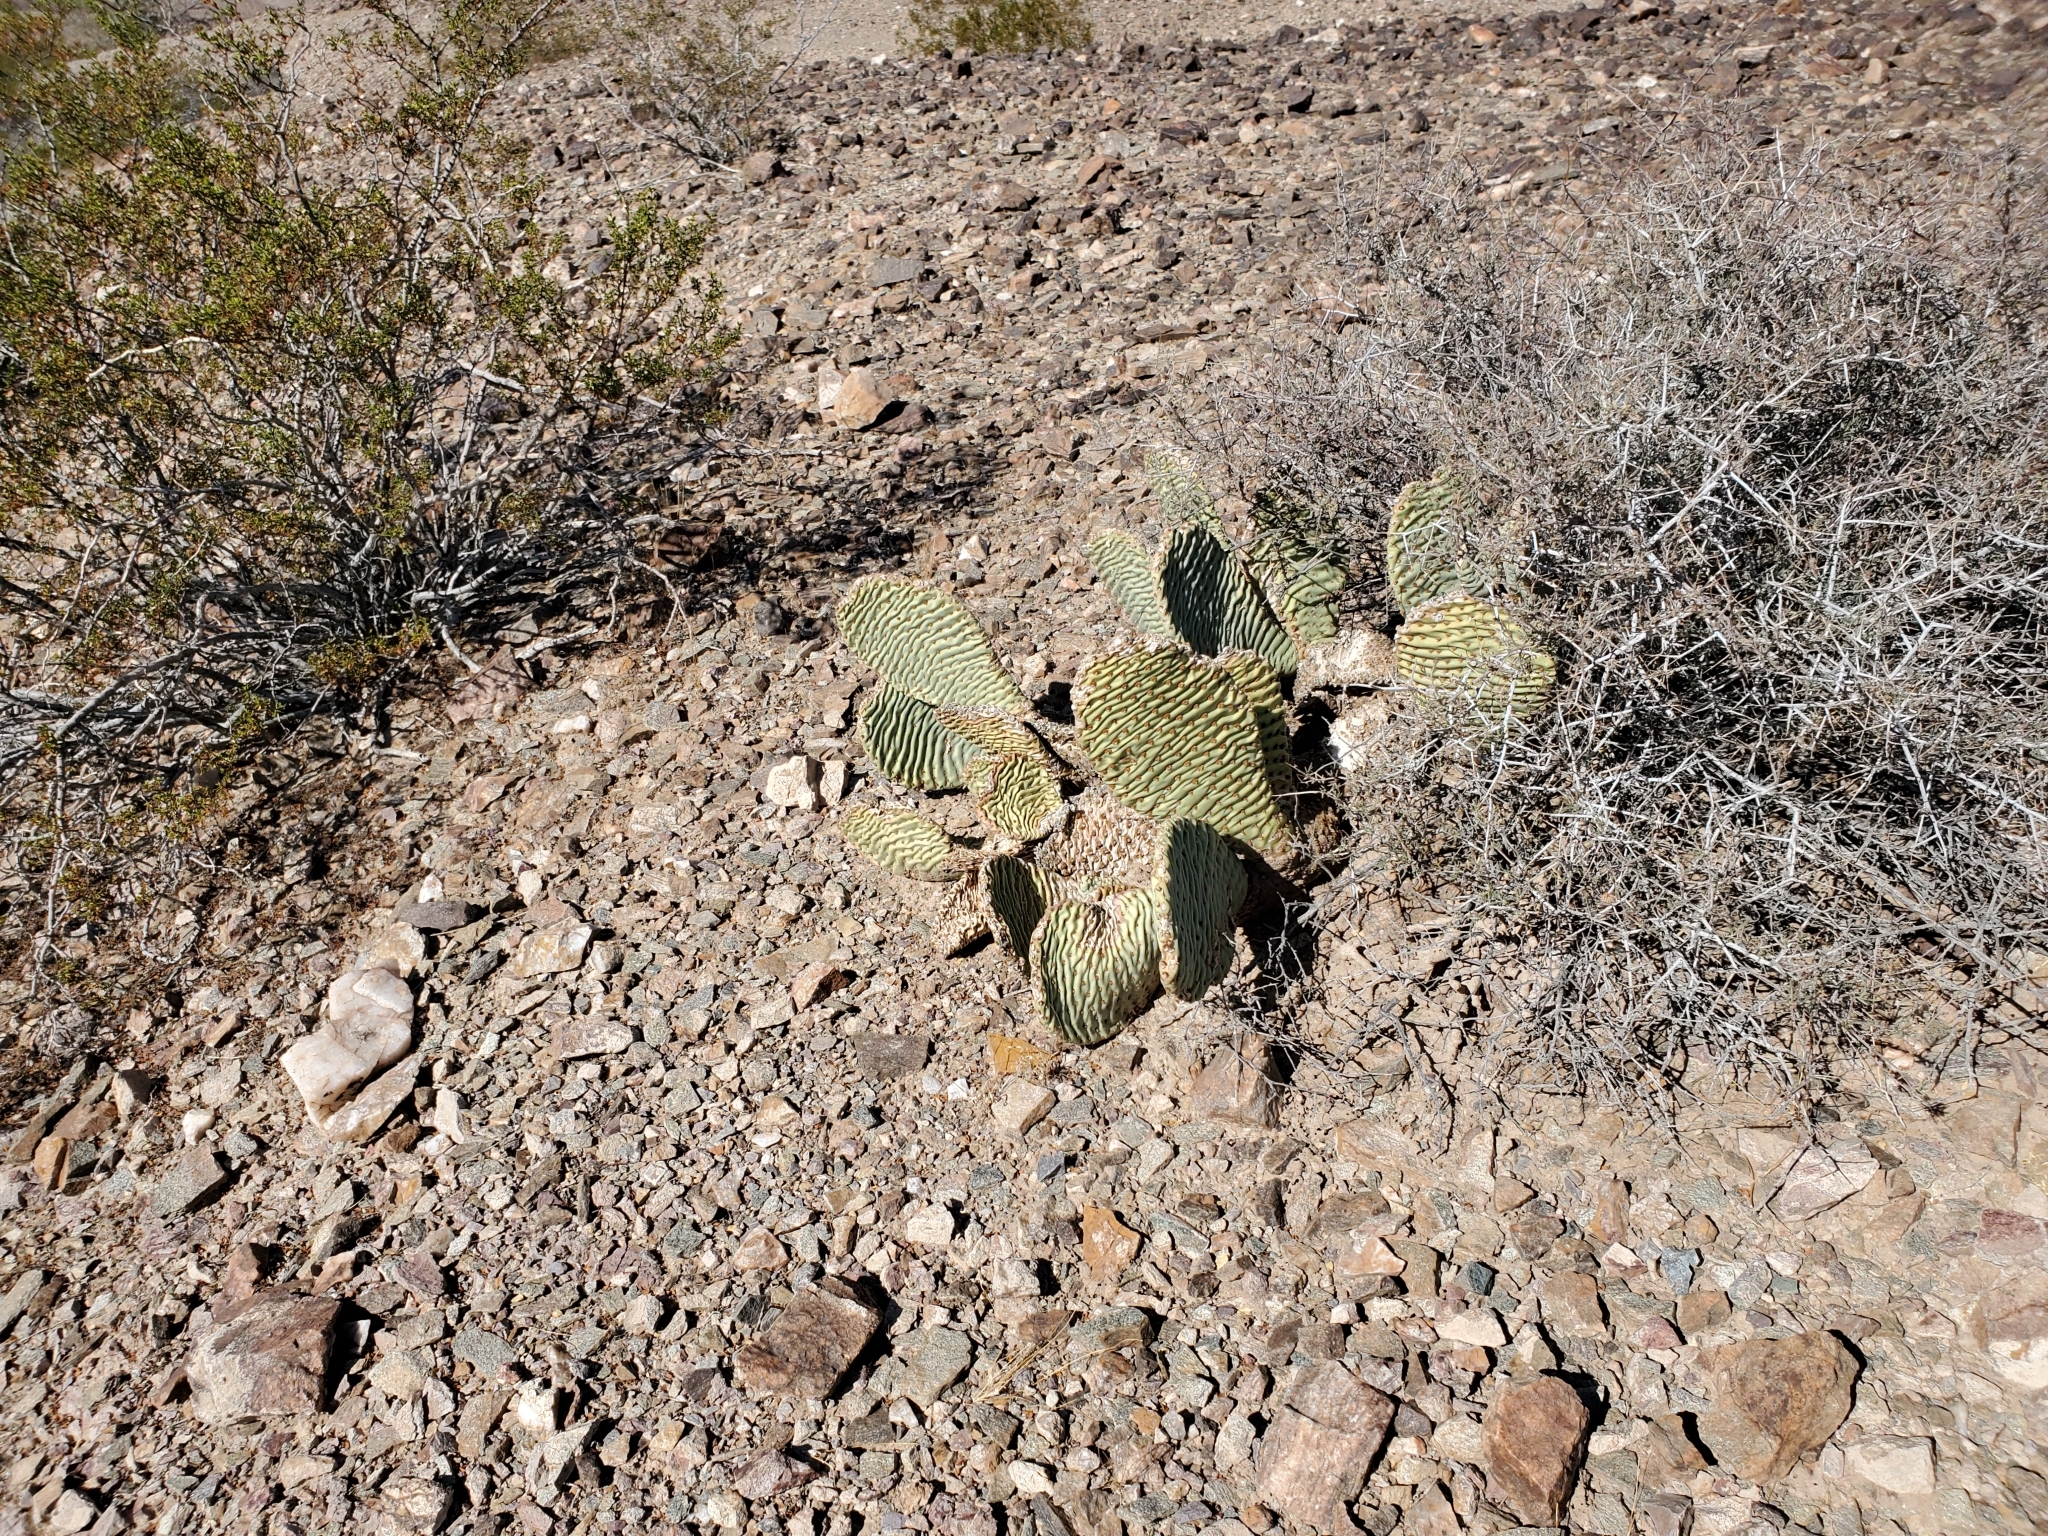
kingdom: Plantae
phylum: Tracheophyta
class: Magnoliopsida
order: Caryophyllales
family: Cactaceae
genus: Opuntia
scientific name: Opuntia basilaris
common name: Beavertail prickly-pear
